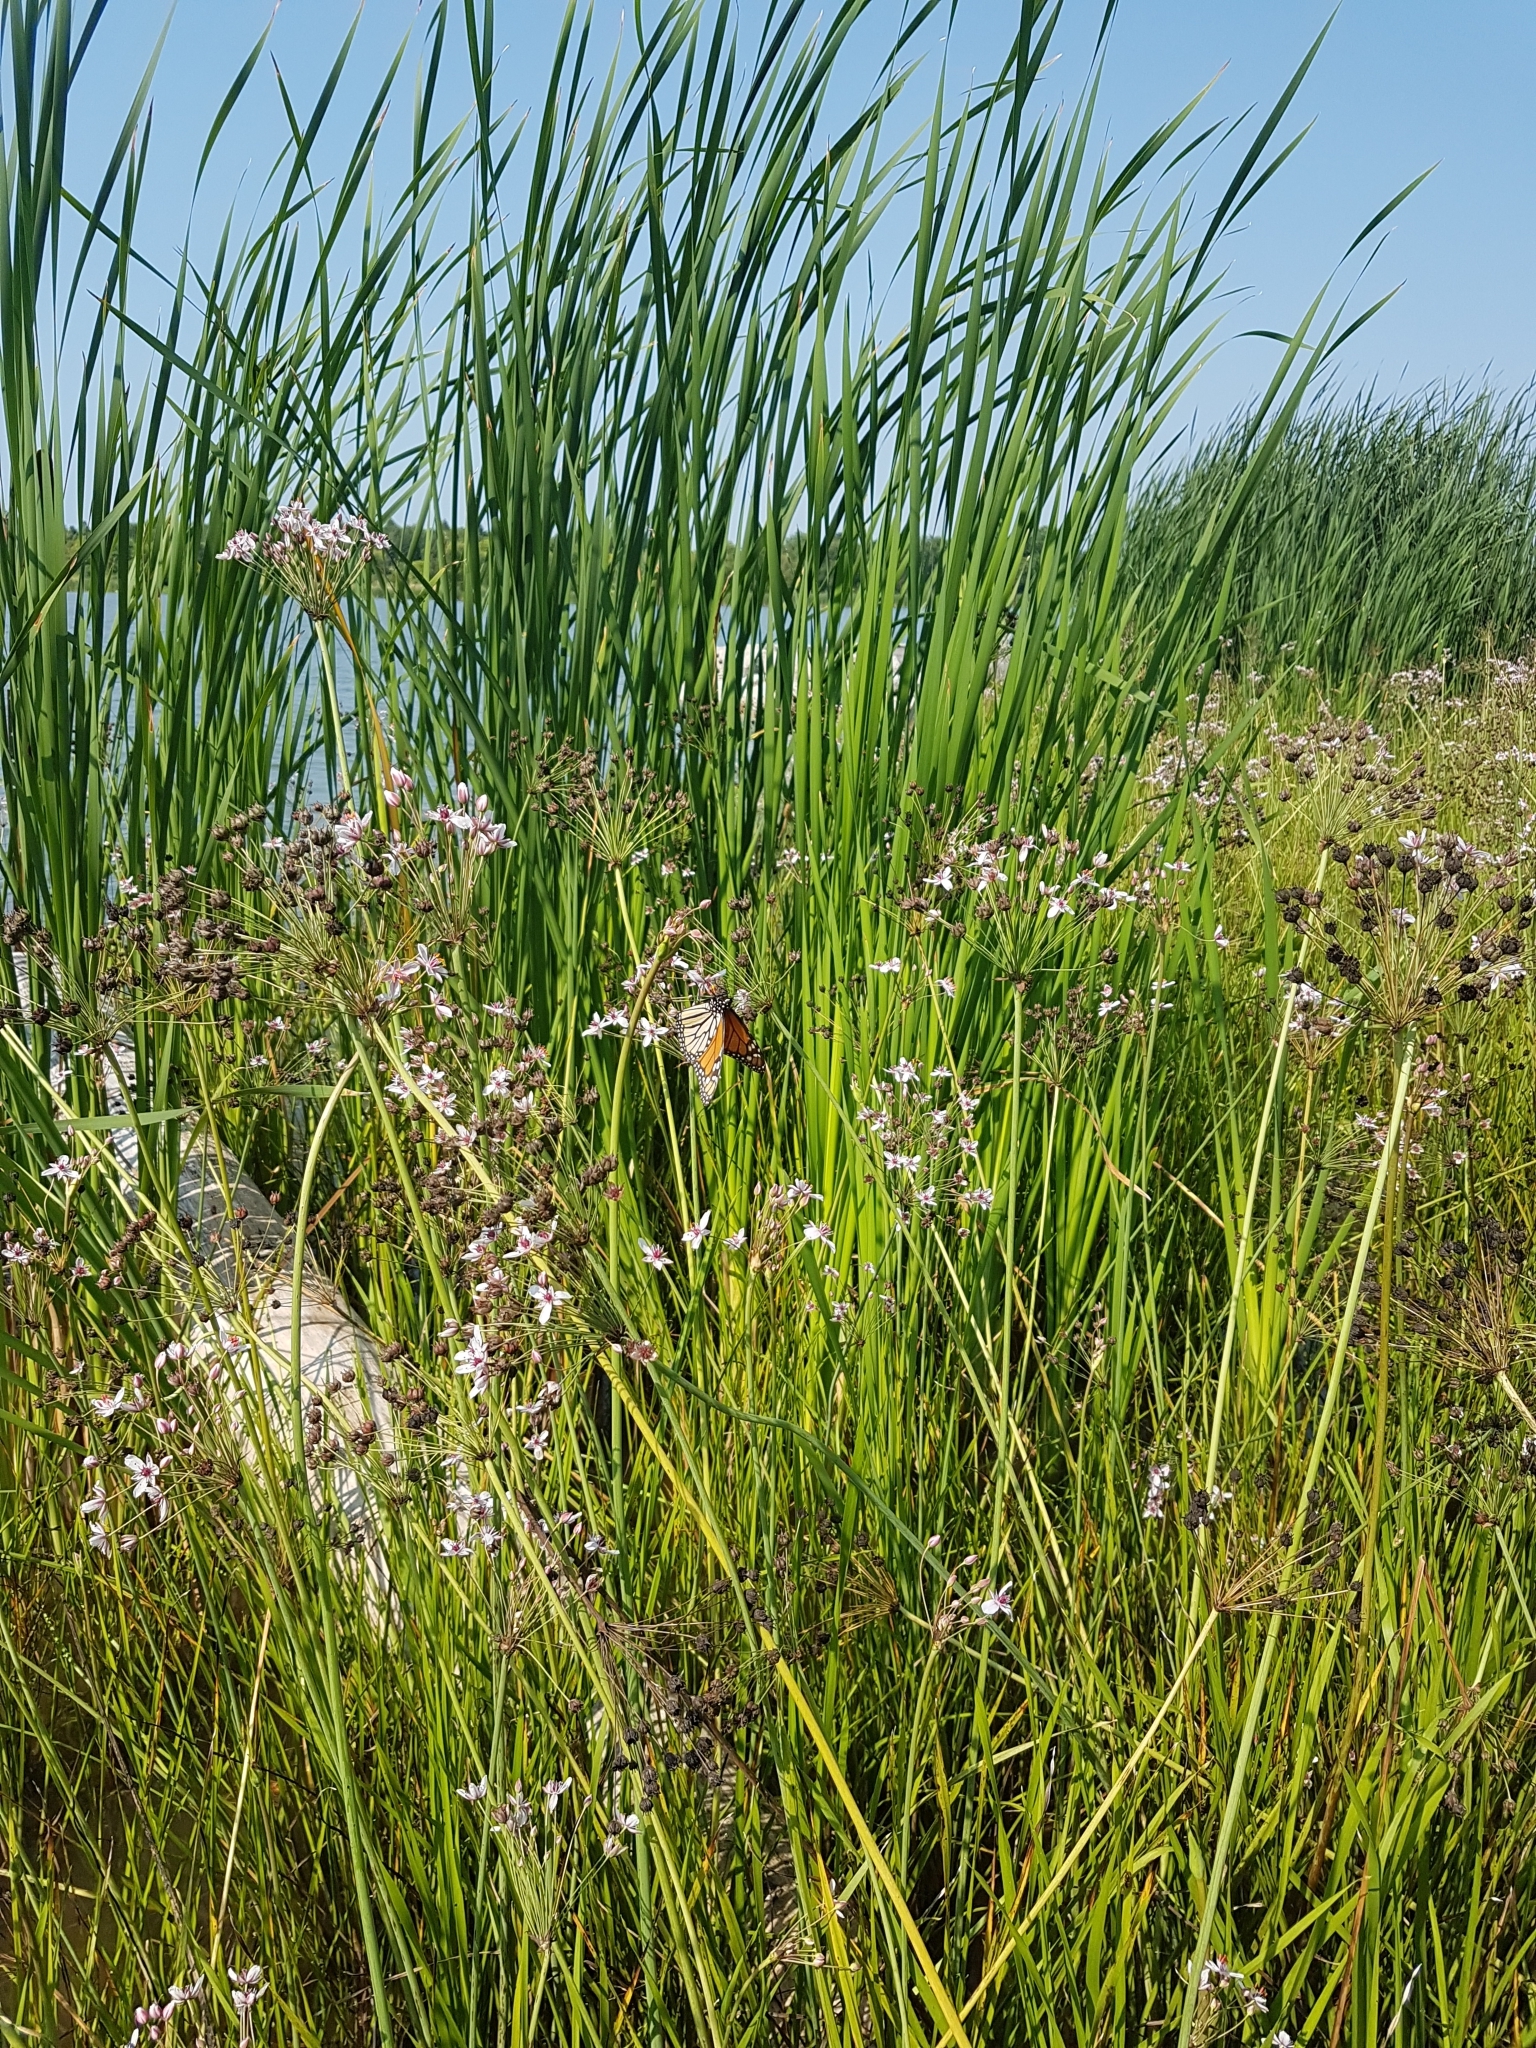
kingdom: Animalia
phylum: Arthropoda
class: Insecta
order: Lepidoptera
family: Nymphalidae
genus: Danaus
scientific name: Danaus plexippus
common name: Monarch
